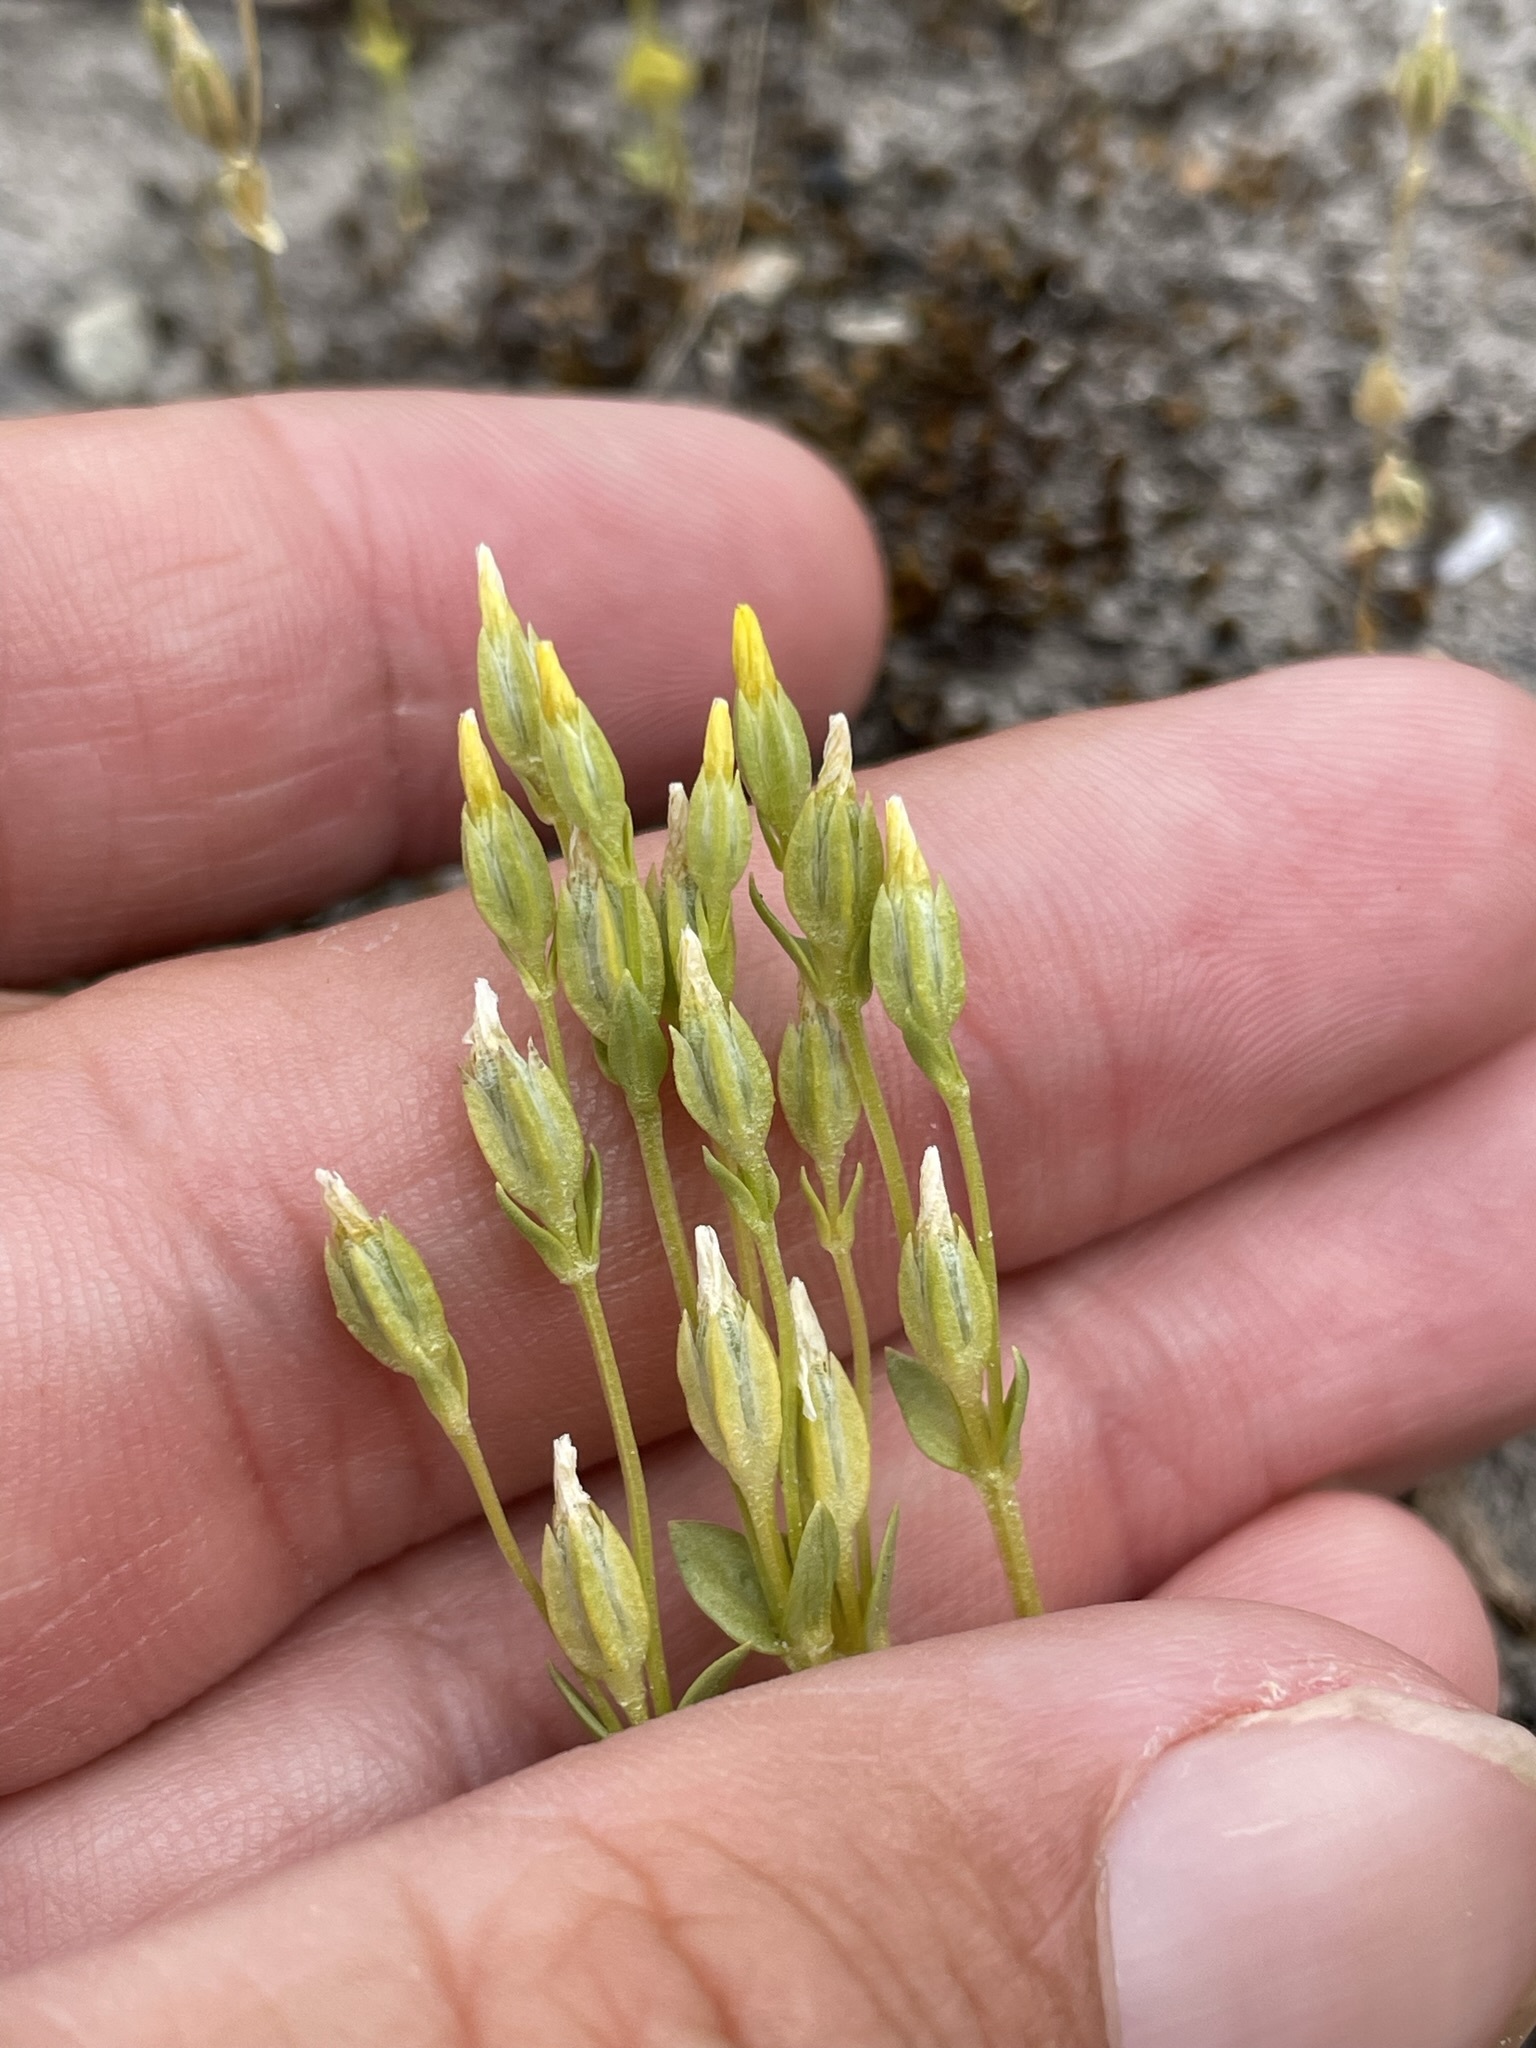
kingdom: Plantae
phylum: Tracheophyta
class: Magnoliopsida
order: Gentianales
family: Gentianaceae
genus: Sebaea
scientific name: Sebaea ovata
